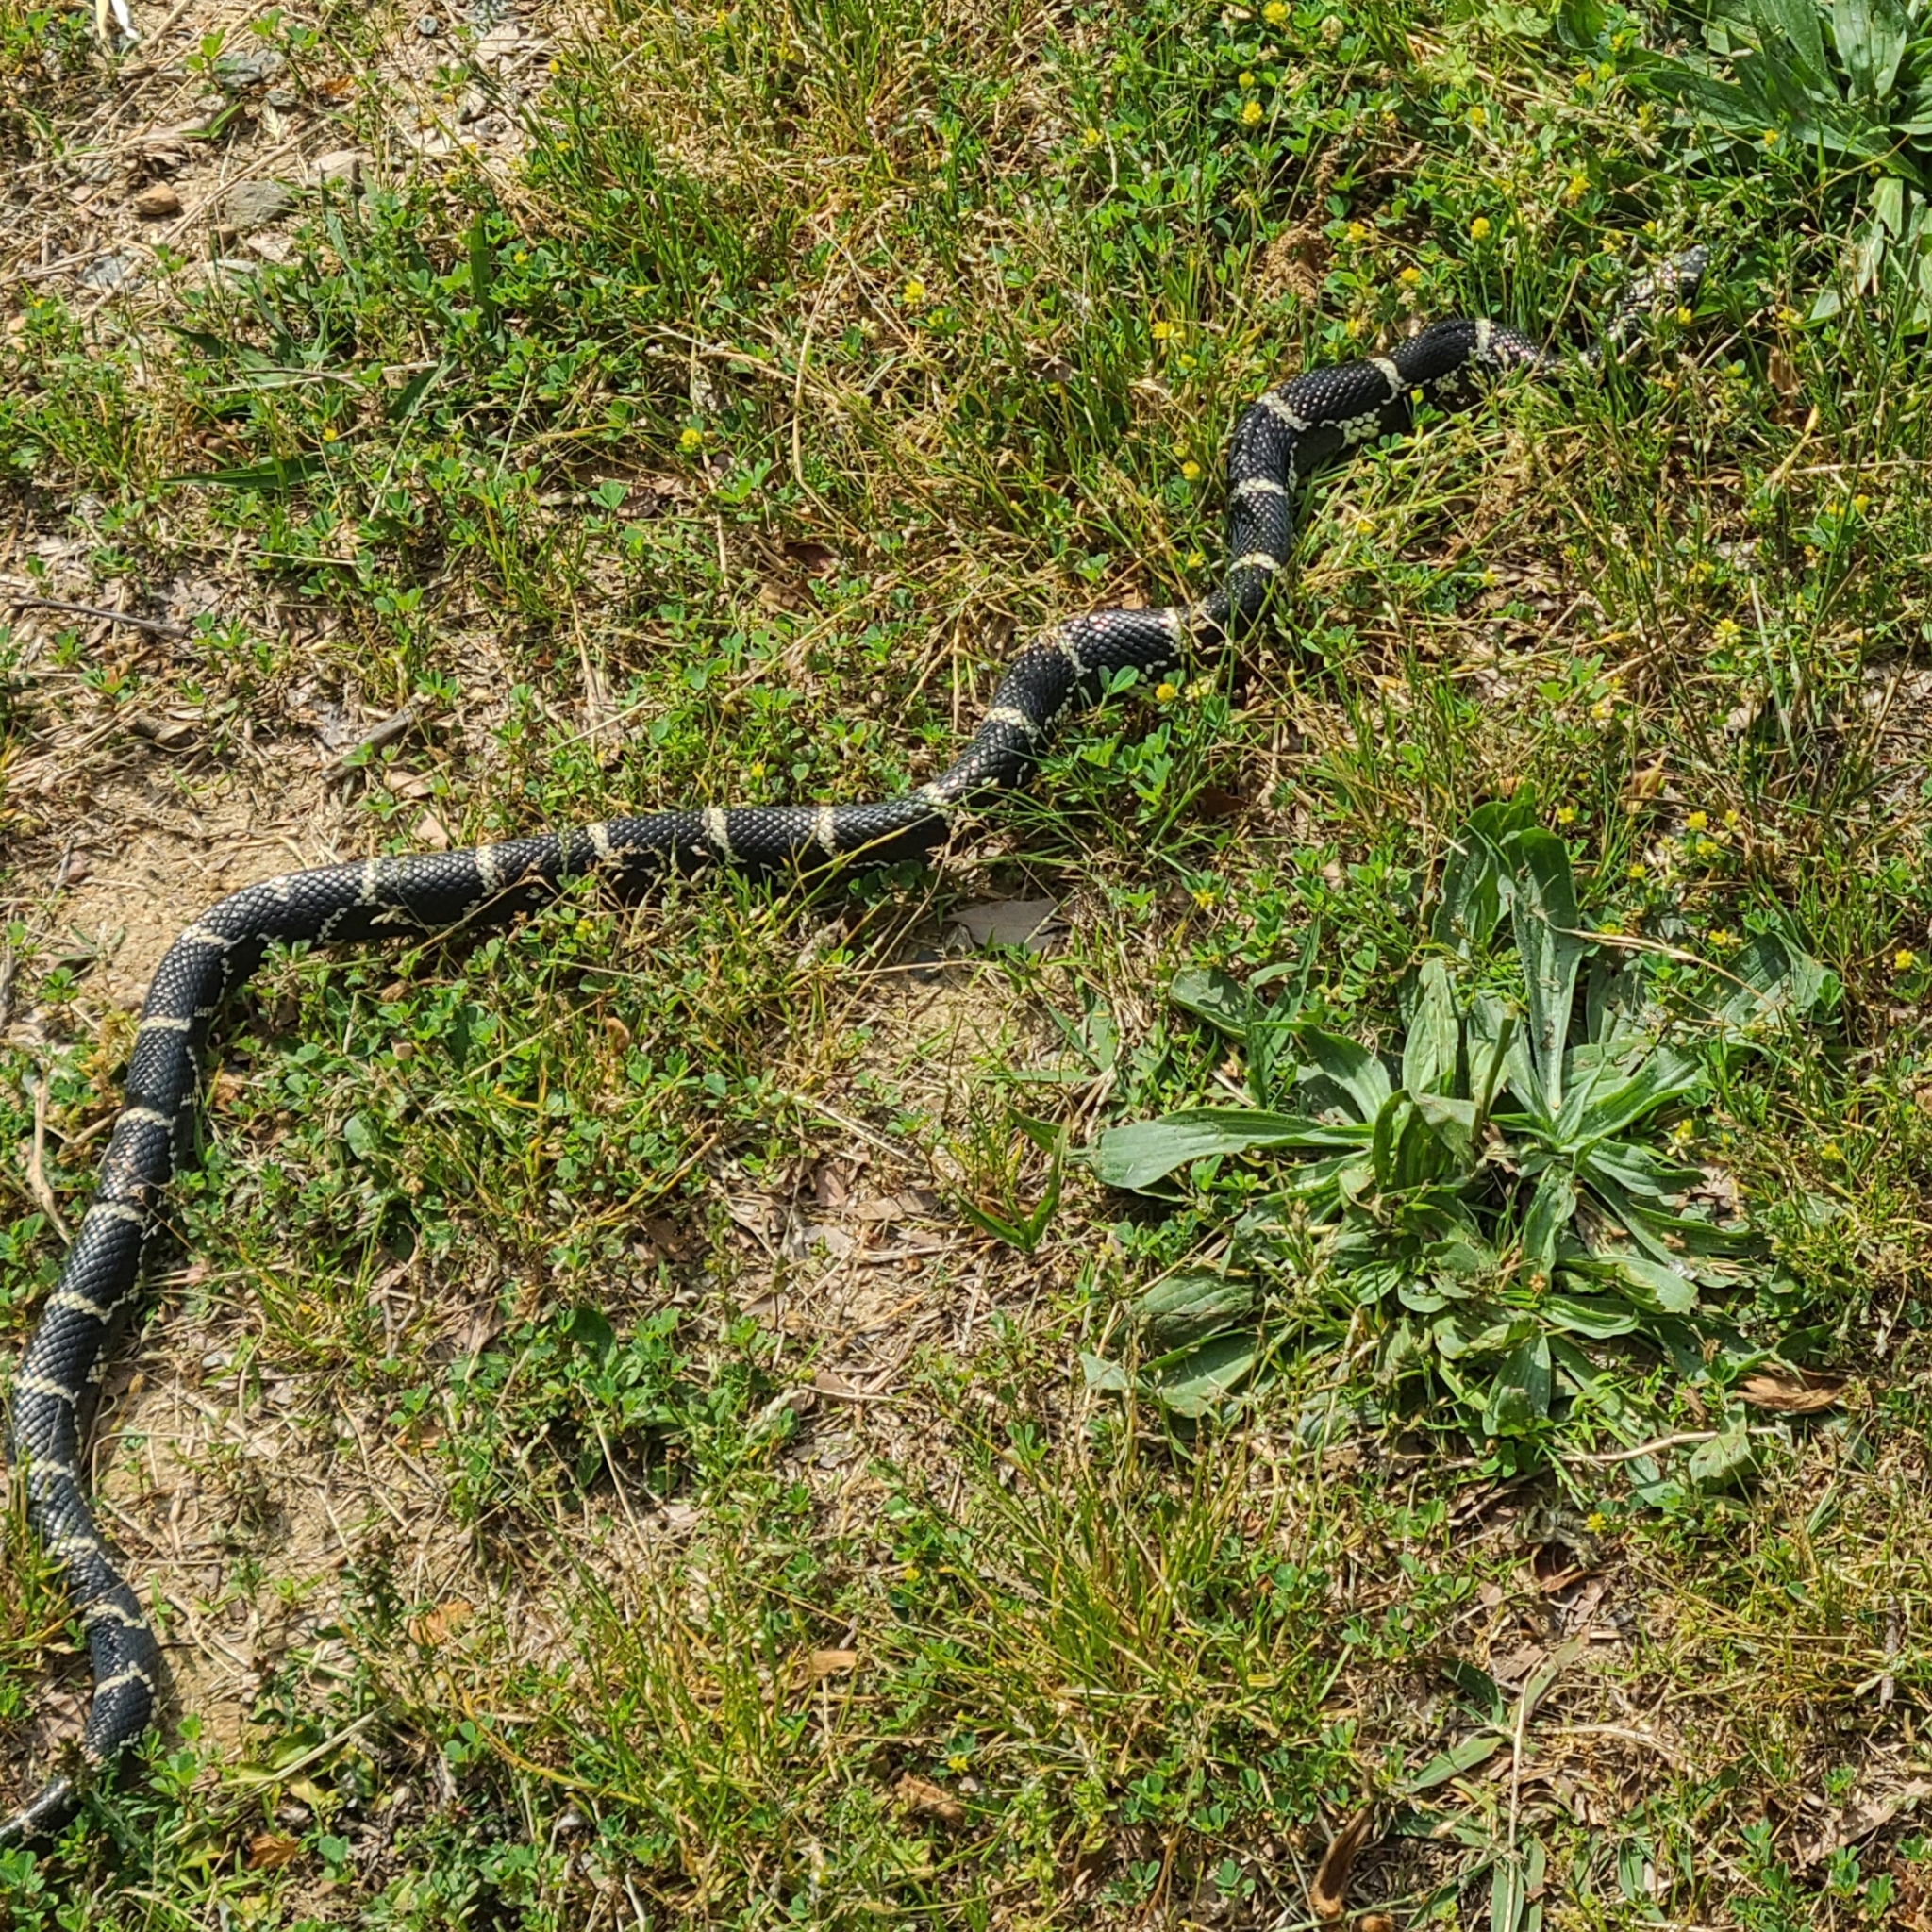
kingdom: Animalia
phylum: Chordata
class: Squamata
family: Colubridae
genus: Lampropeltis
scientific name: Lampropeltis getula
